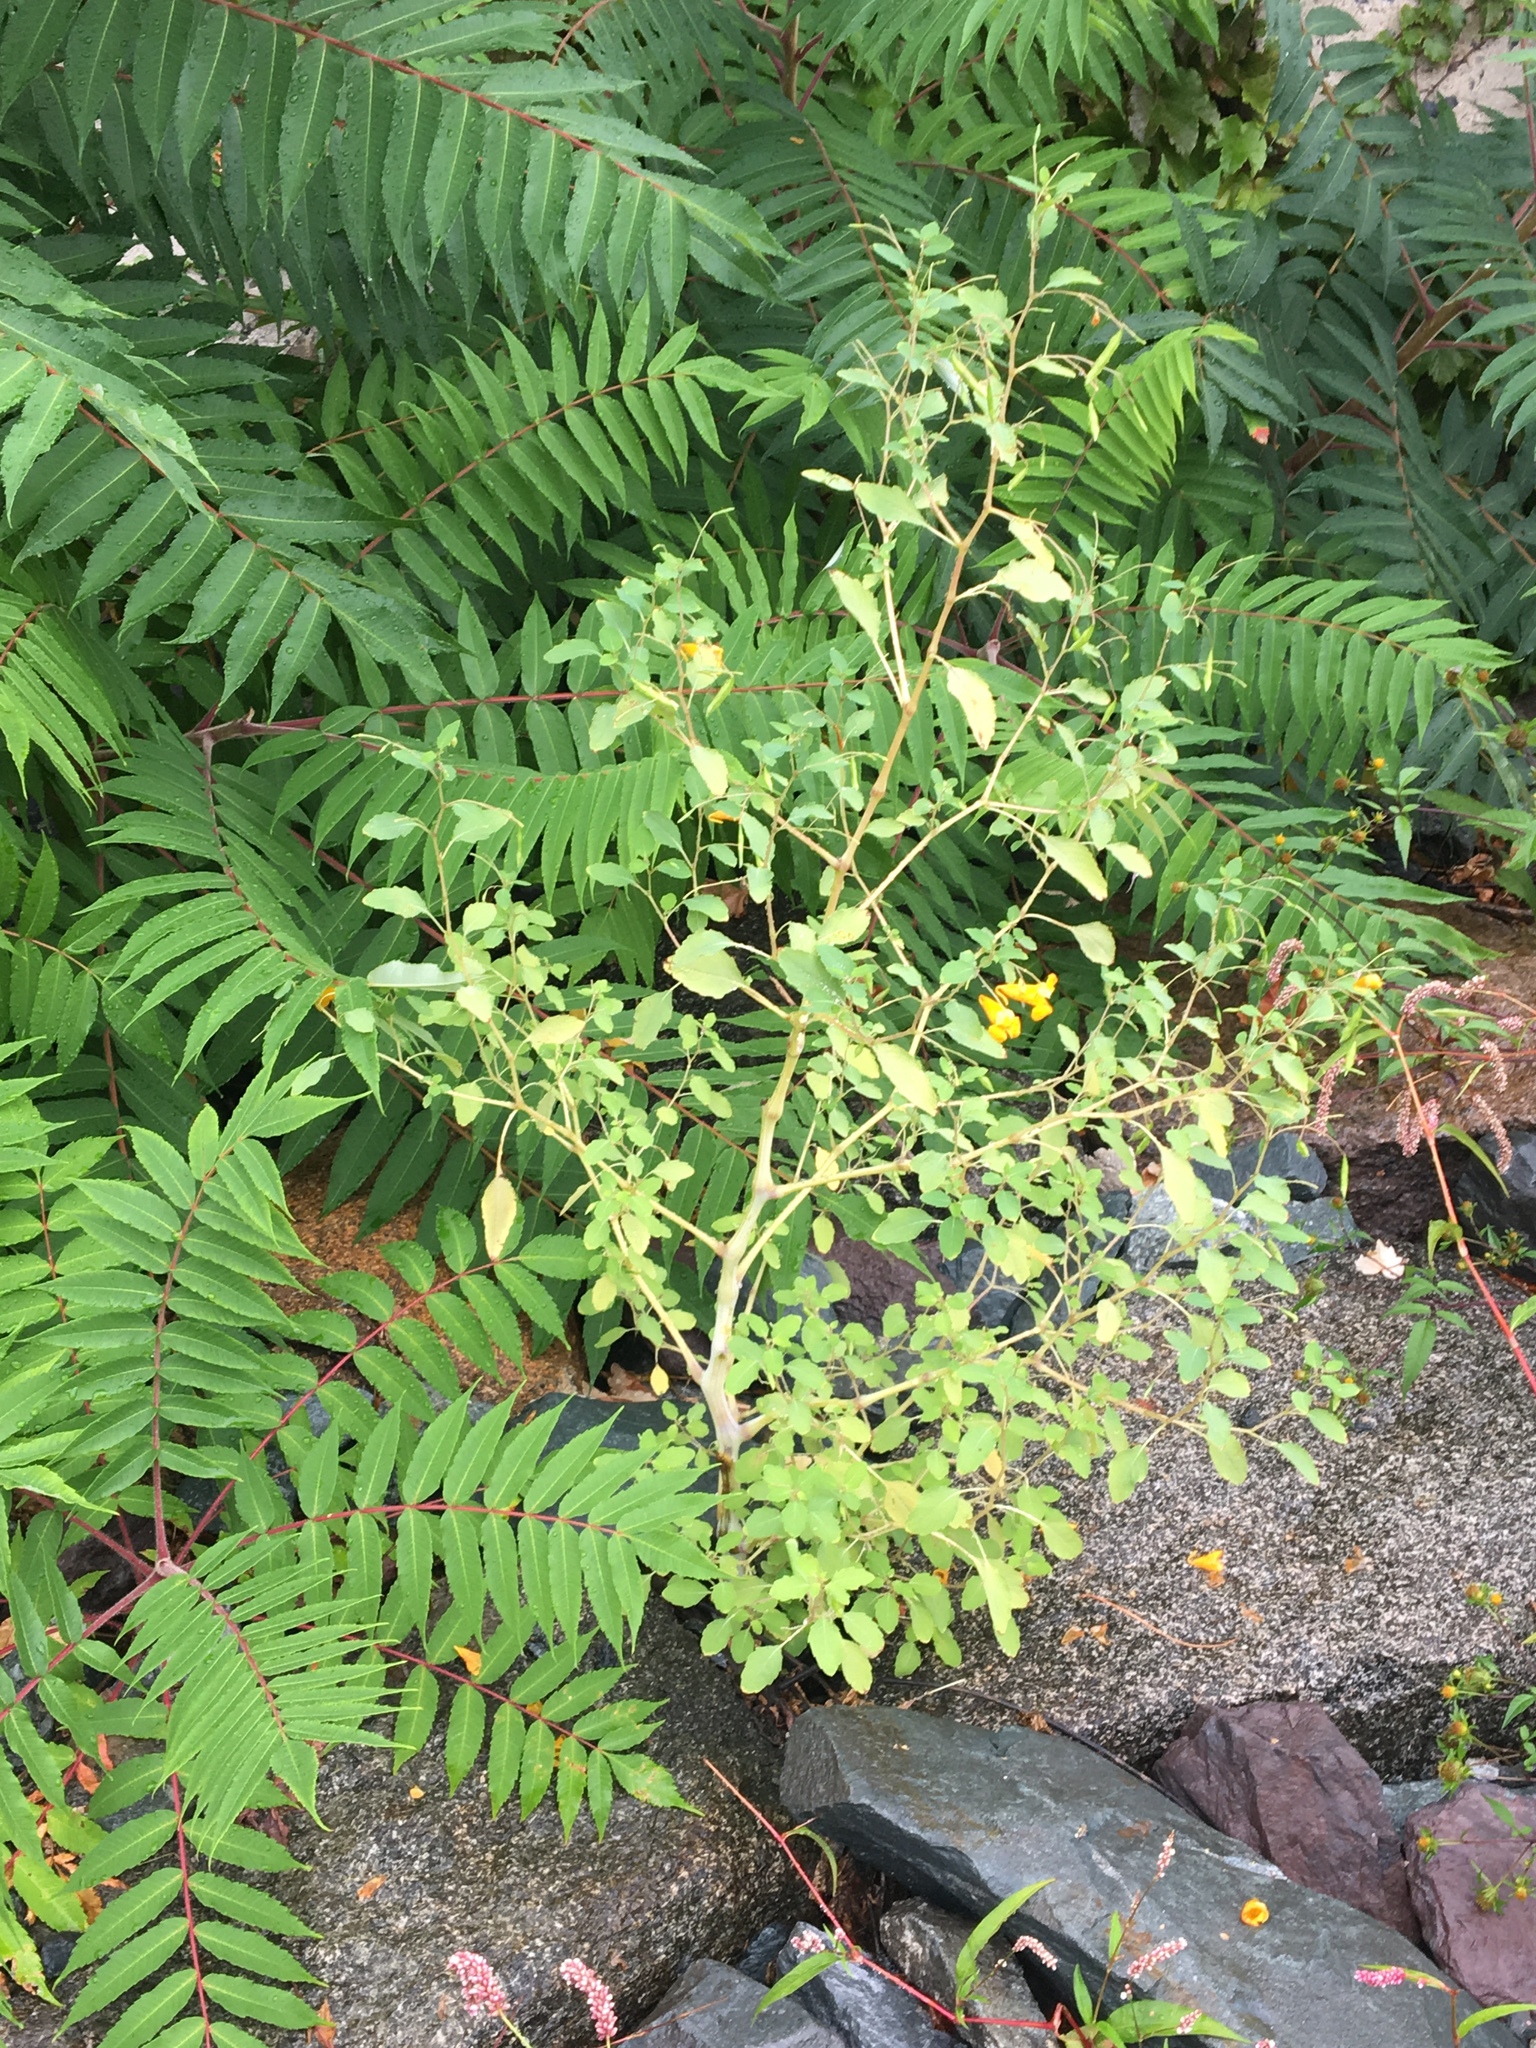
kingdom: Plantae
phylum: Tracheophyta
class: Magnoliopsida
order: Ericales
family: Balsaminaceae
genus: Impatiens
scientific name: Impatiens capensis
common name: Orange balsam
